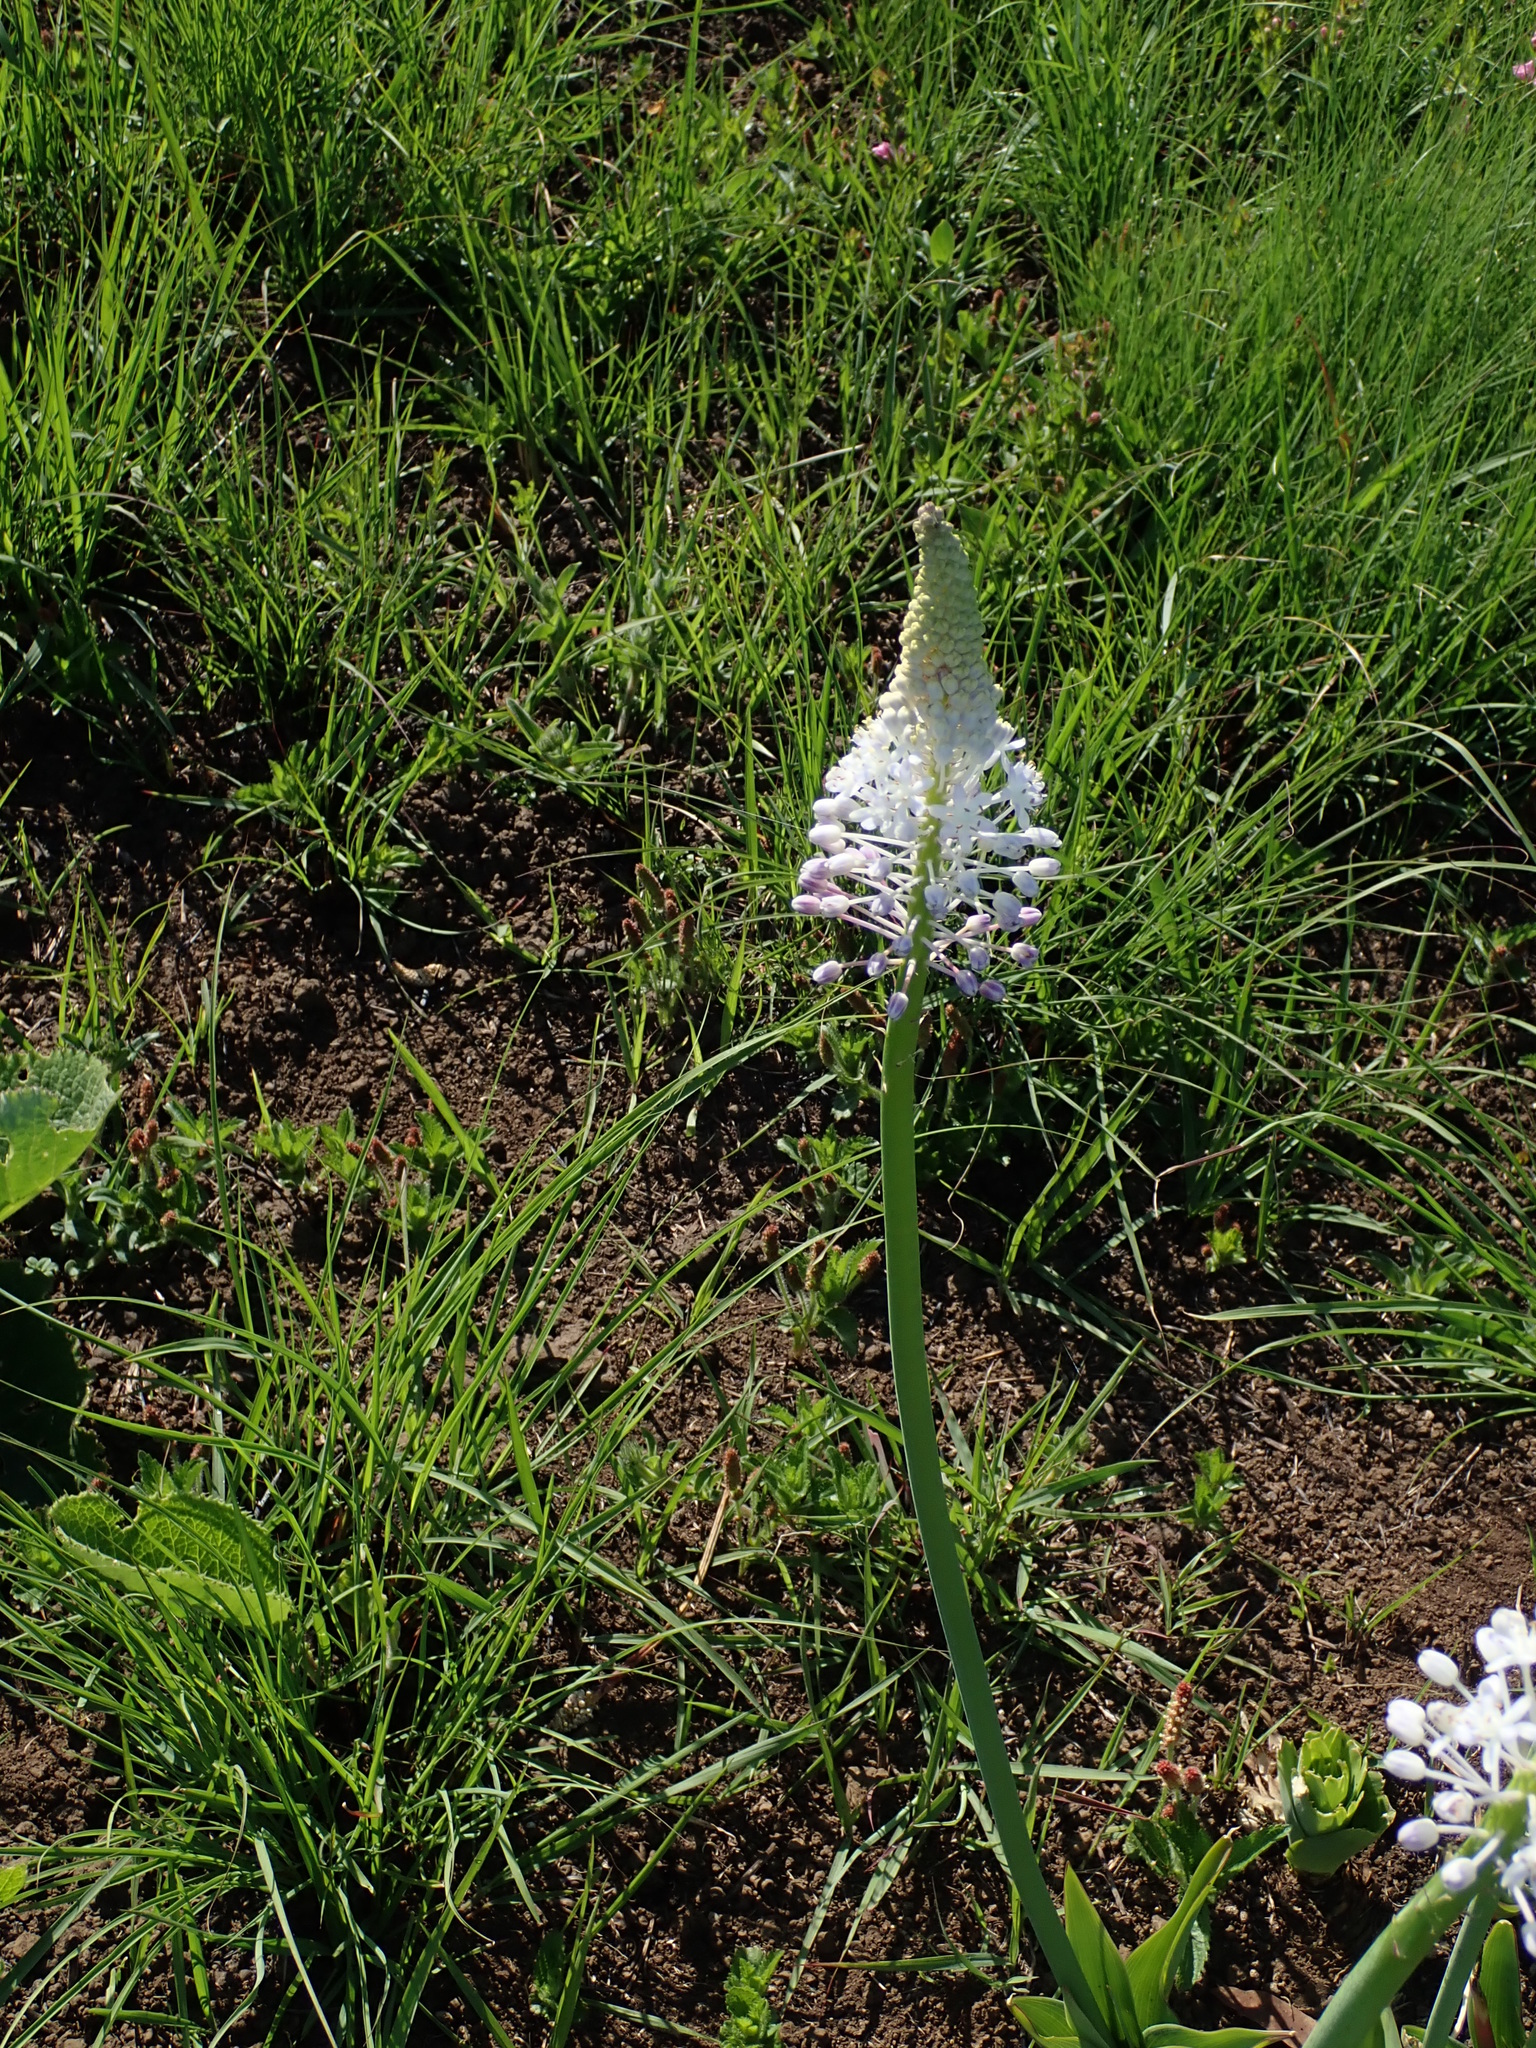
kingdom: Plantae
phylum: Tracheophyta
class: Liliopsida
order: Asparagales
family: Asparagaceae
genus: Merwilla
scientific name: Merwilla plumbea
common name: Blue-squill
